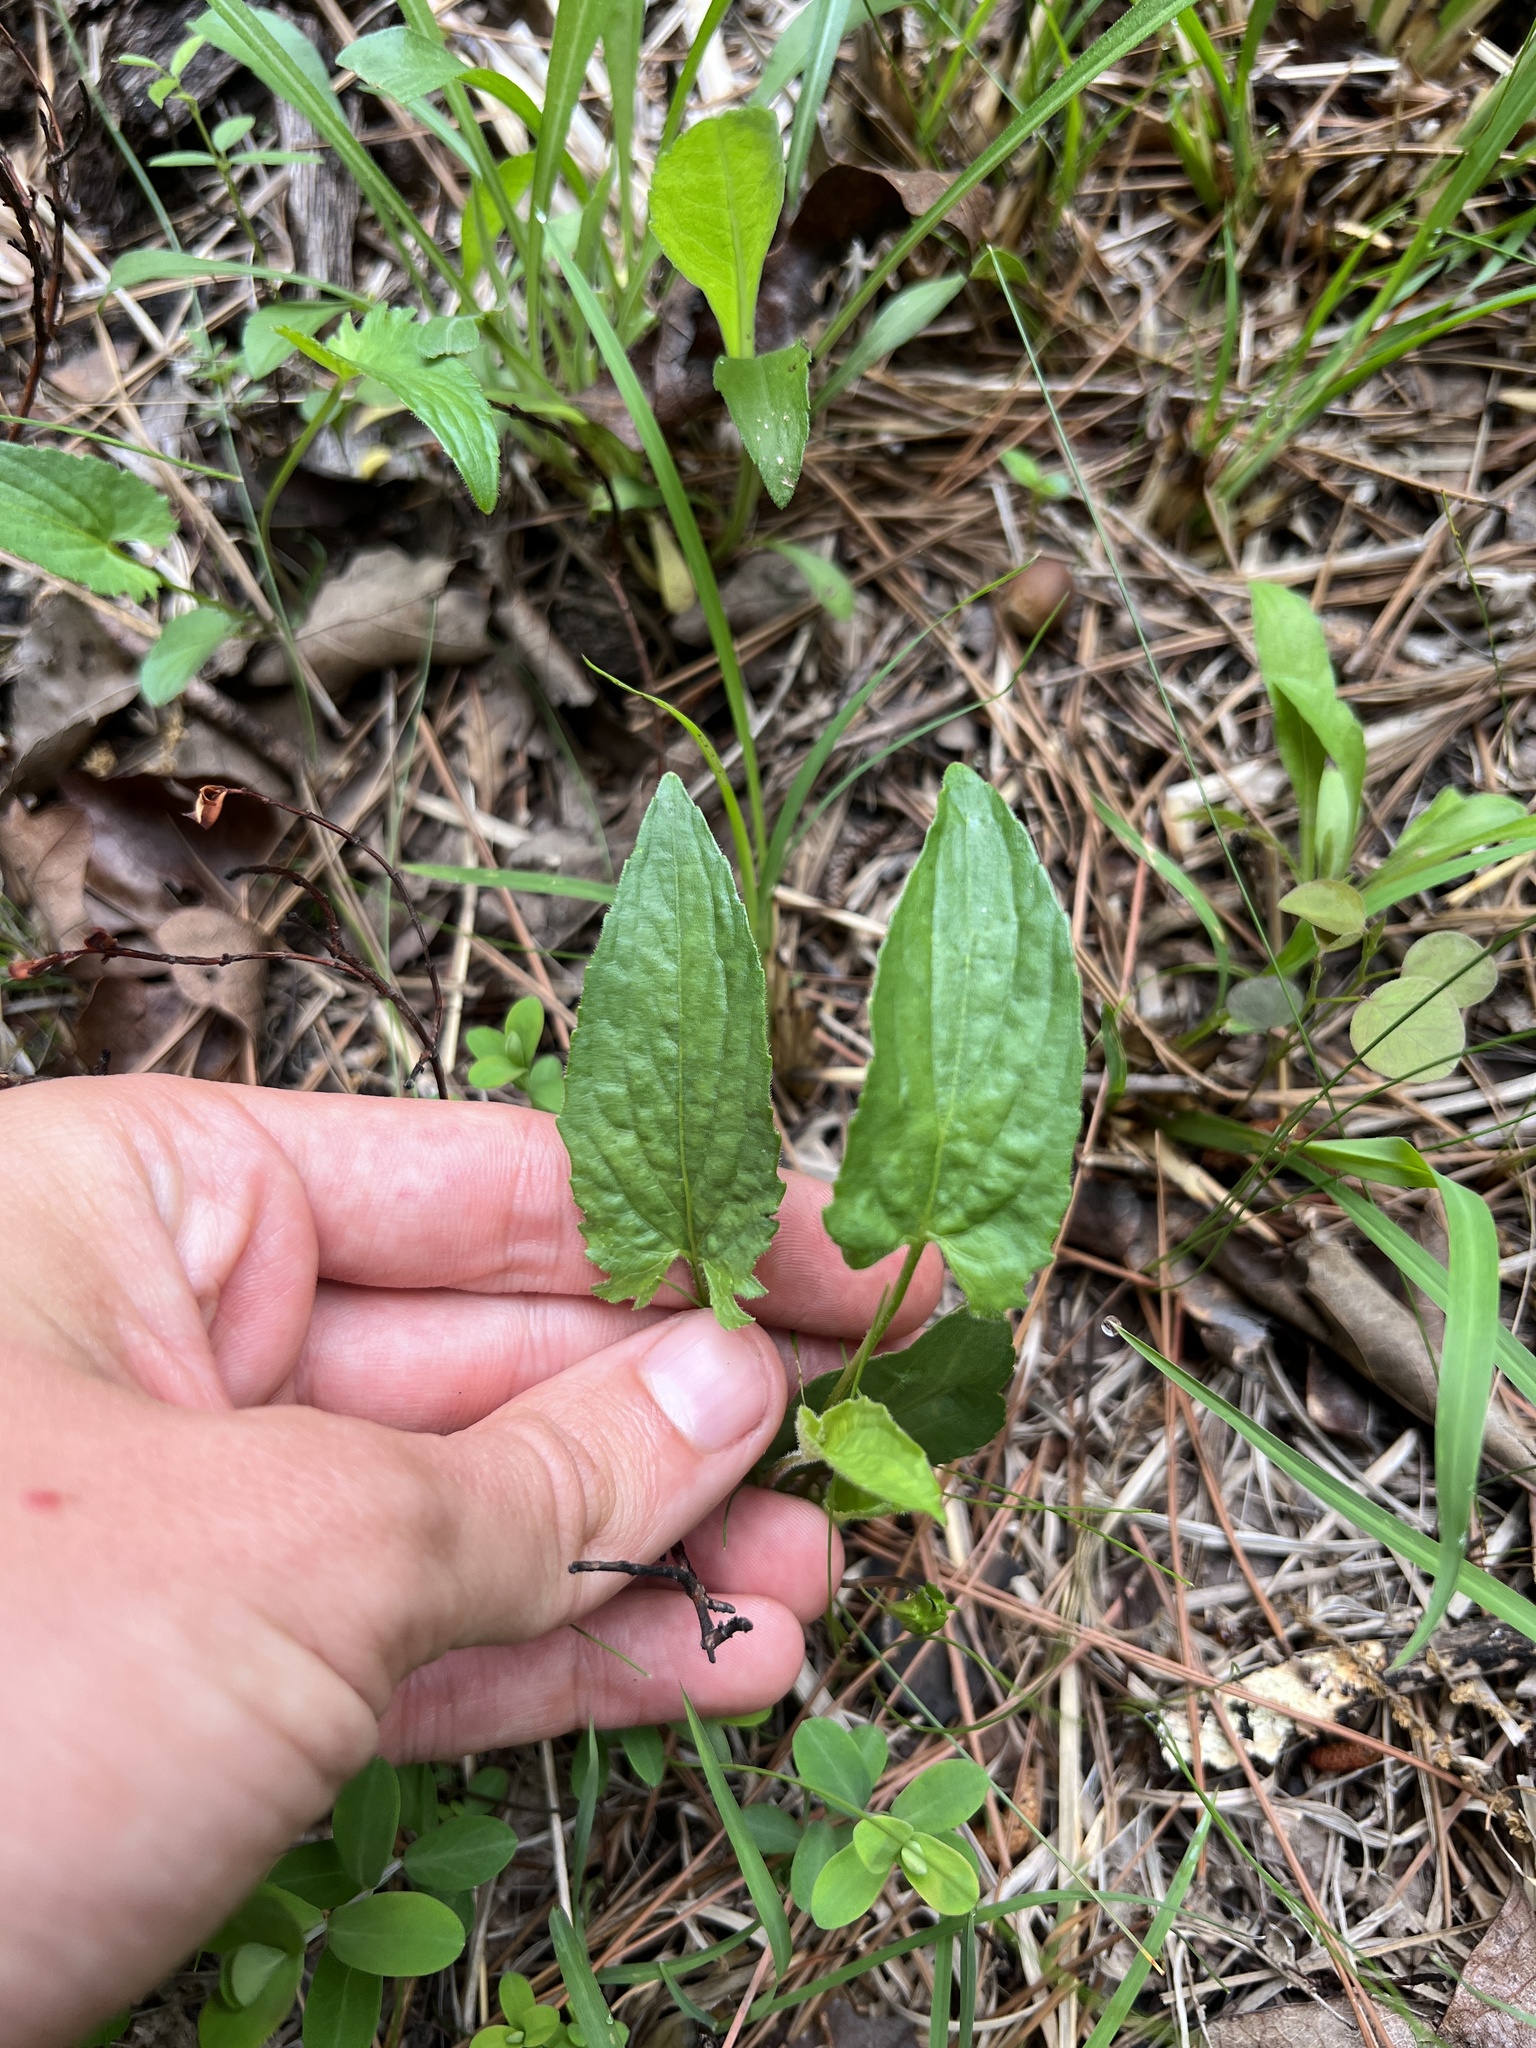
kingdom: Plantae
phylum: Tracheophyta
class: Magnoliopsida
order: Malpighiales
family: Violaceae
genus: Viola
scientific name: Viola sagittata
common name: Arrowhead violet
